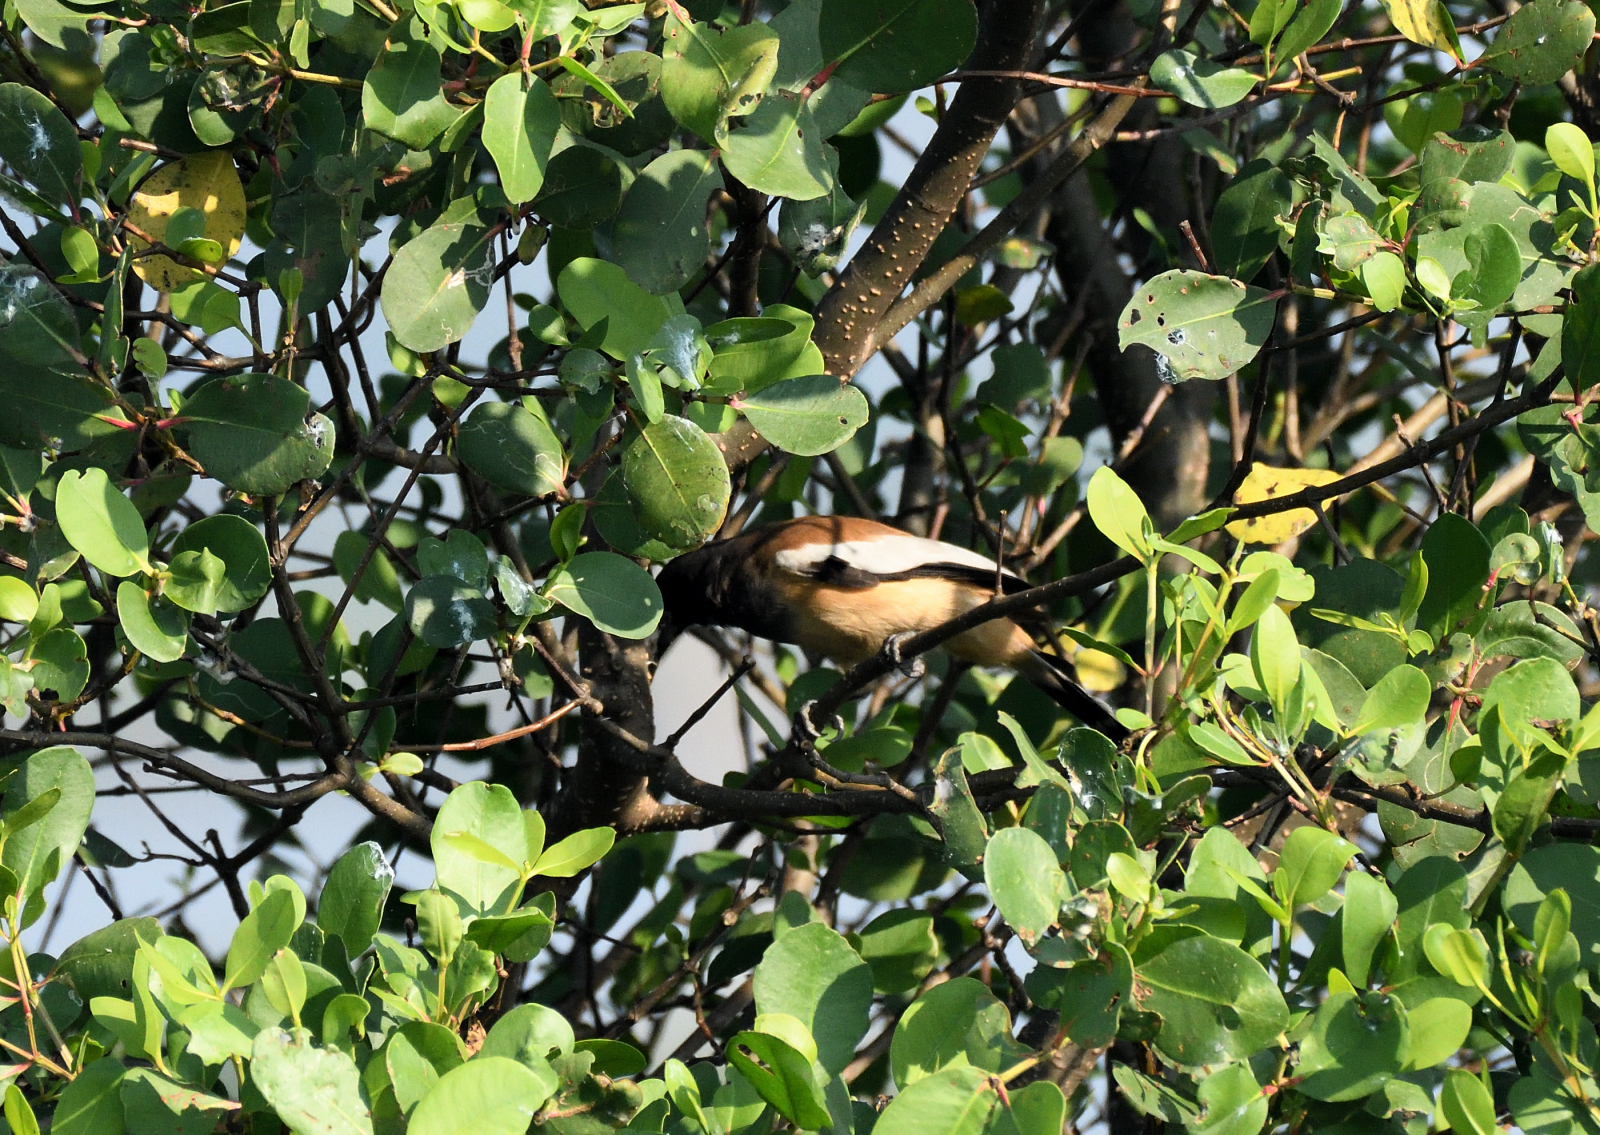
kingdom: Animalia
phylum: Chordata
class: Aves
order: Passeriformes
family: Corvidae
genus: Dendrocitta
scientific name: Dendrocitta vagabunda
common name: Rufous treepie
